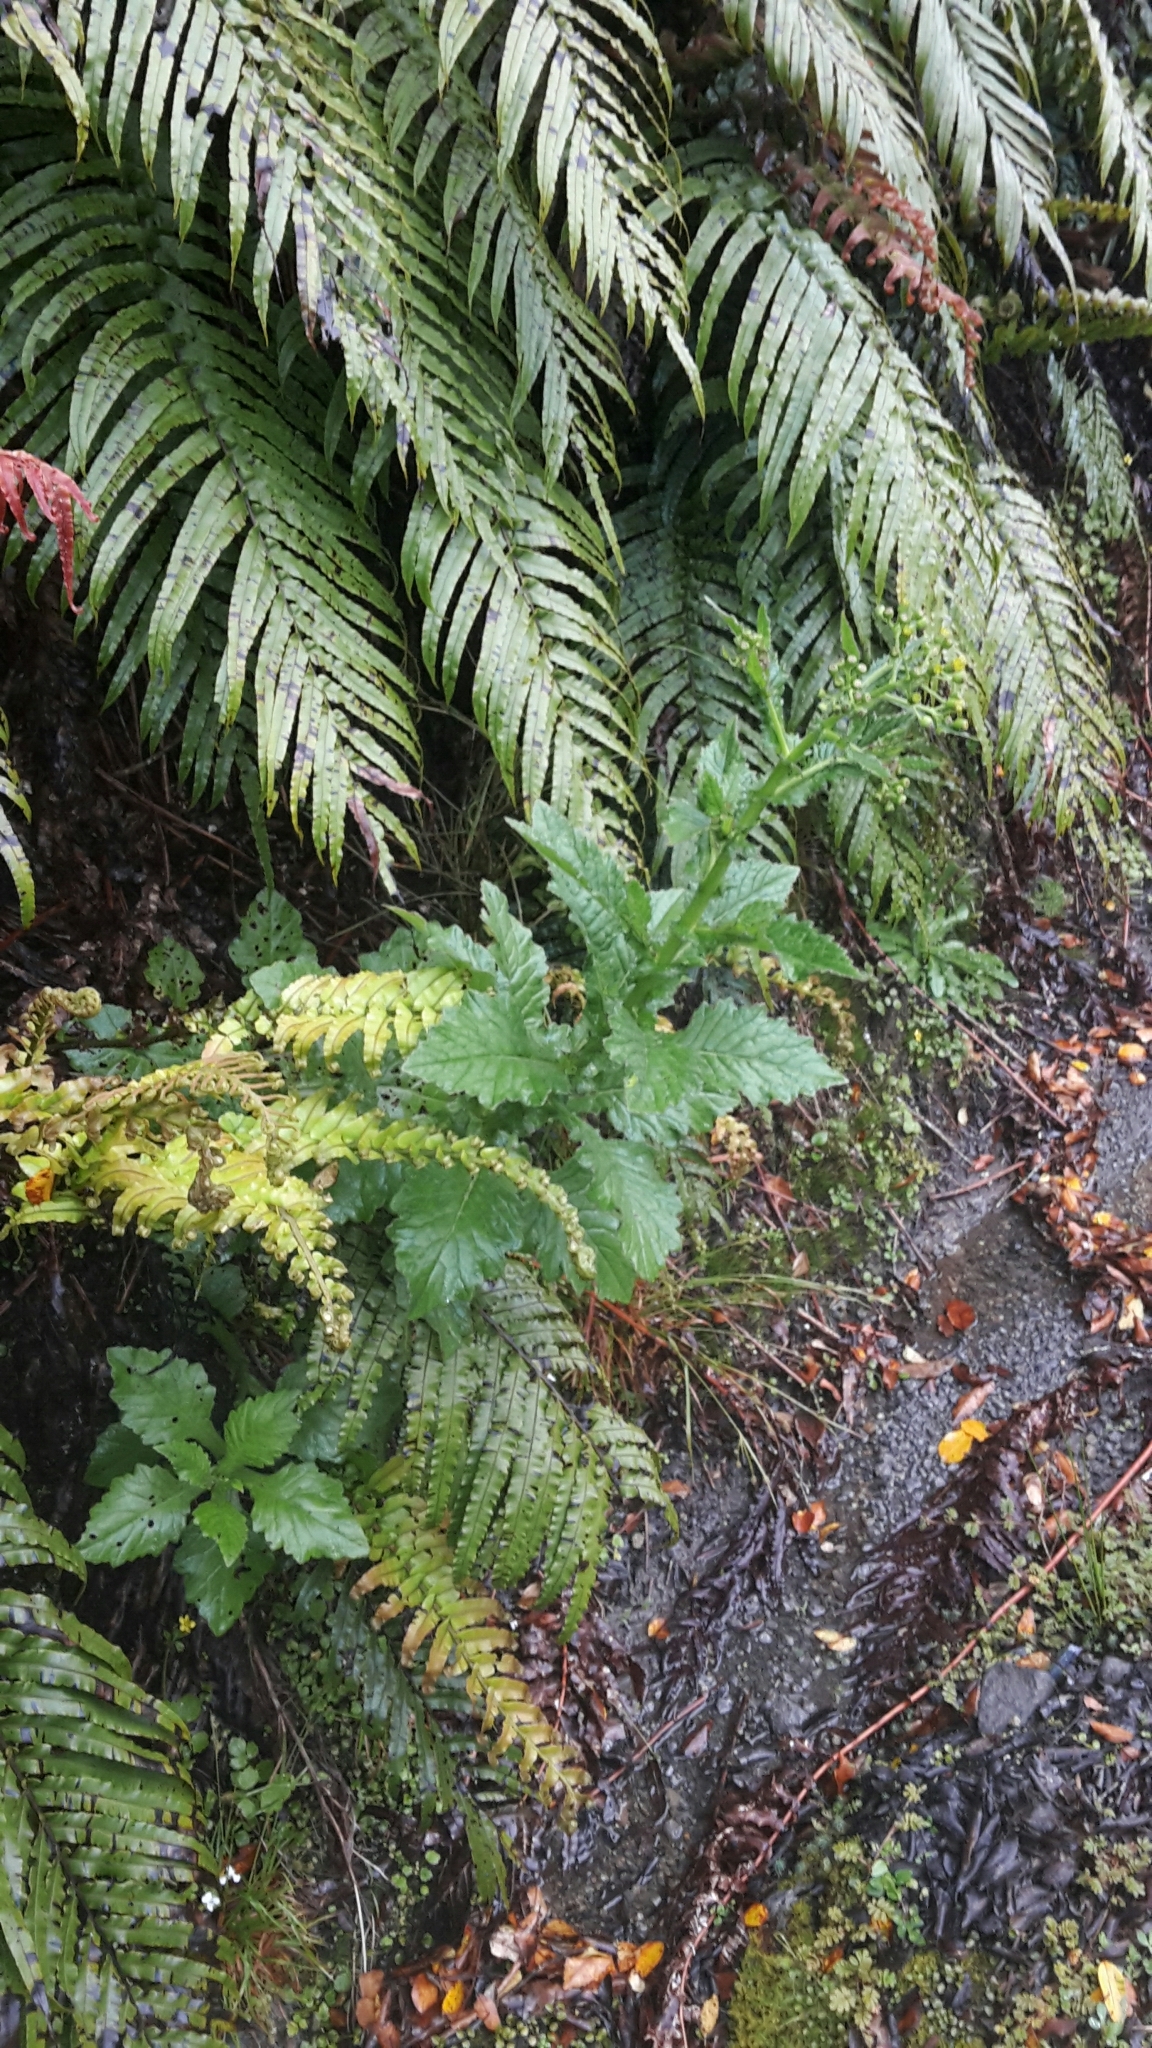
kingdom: Plantae
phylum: Tracheophyta
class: Magnoliopsida
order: Asterales
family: Asteraceae
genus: Senecio
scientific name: Senecio rufiglandulosus
